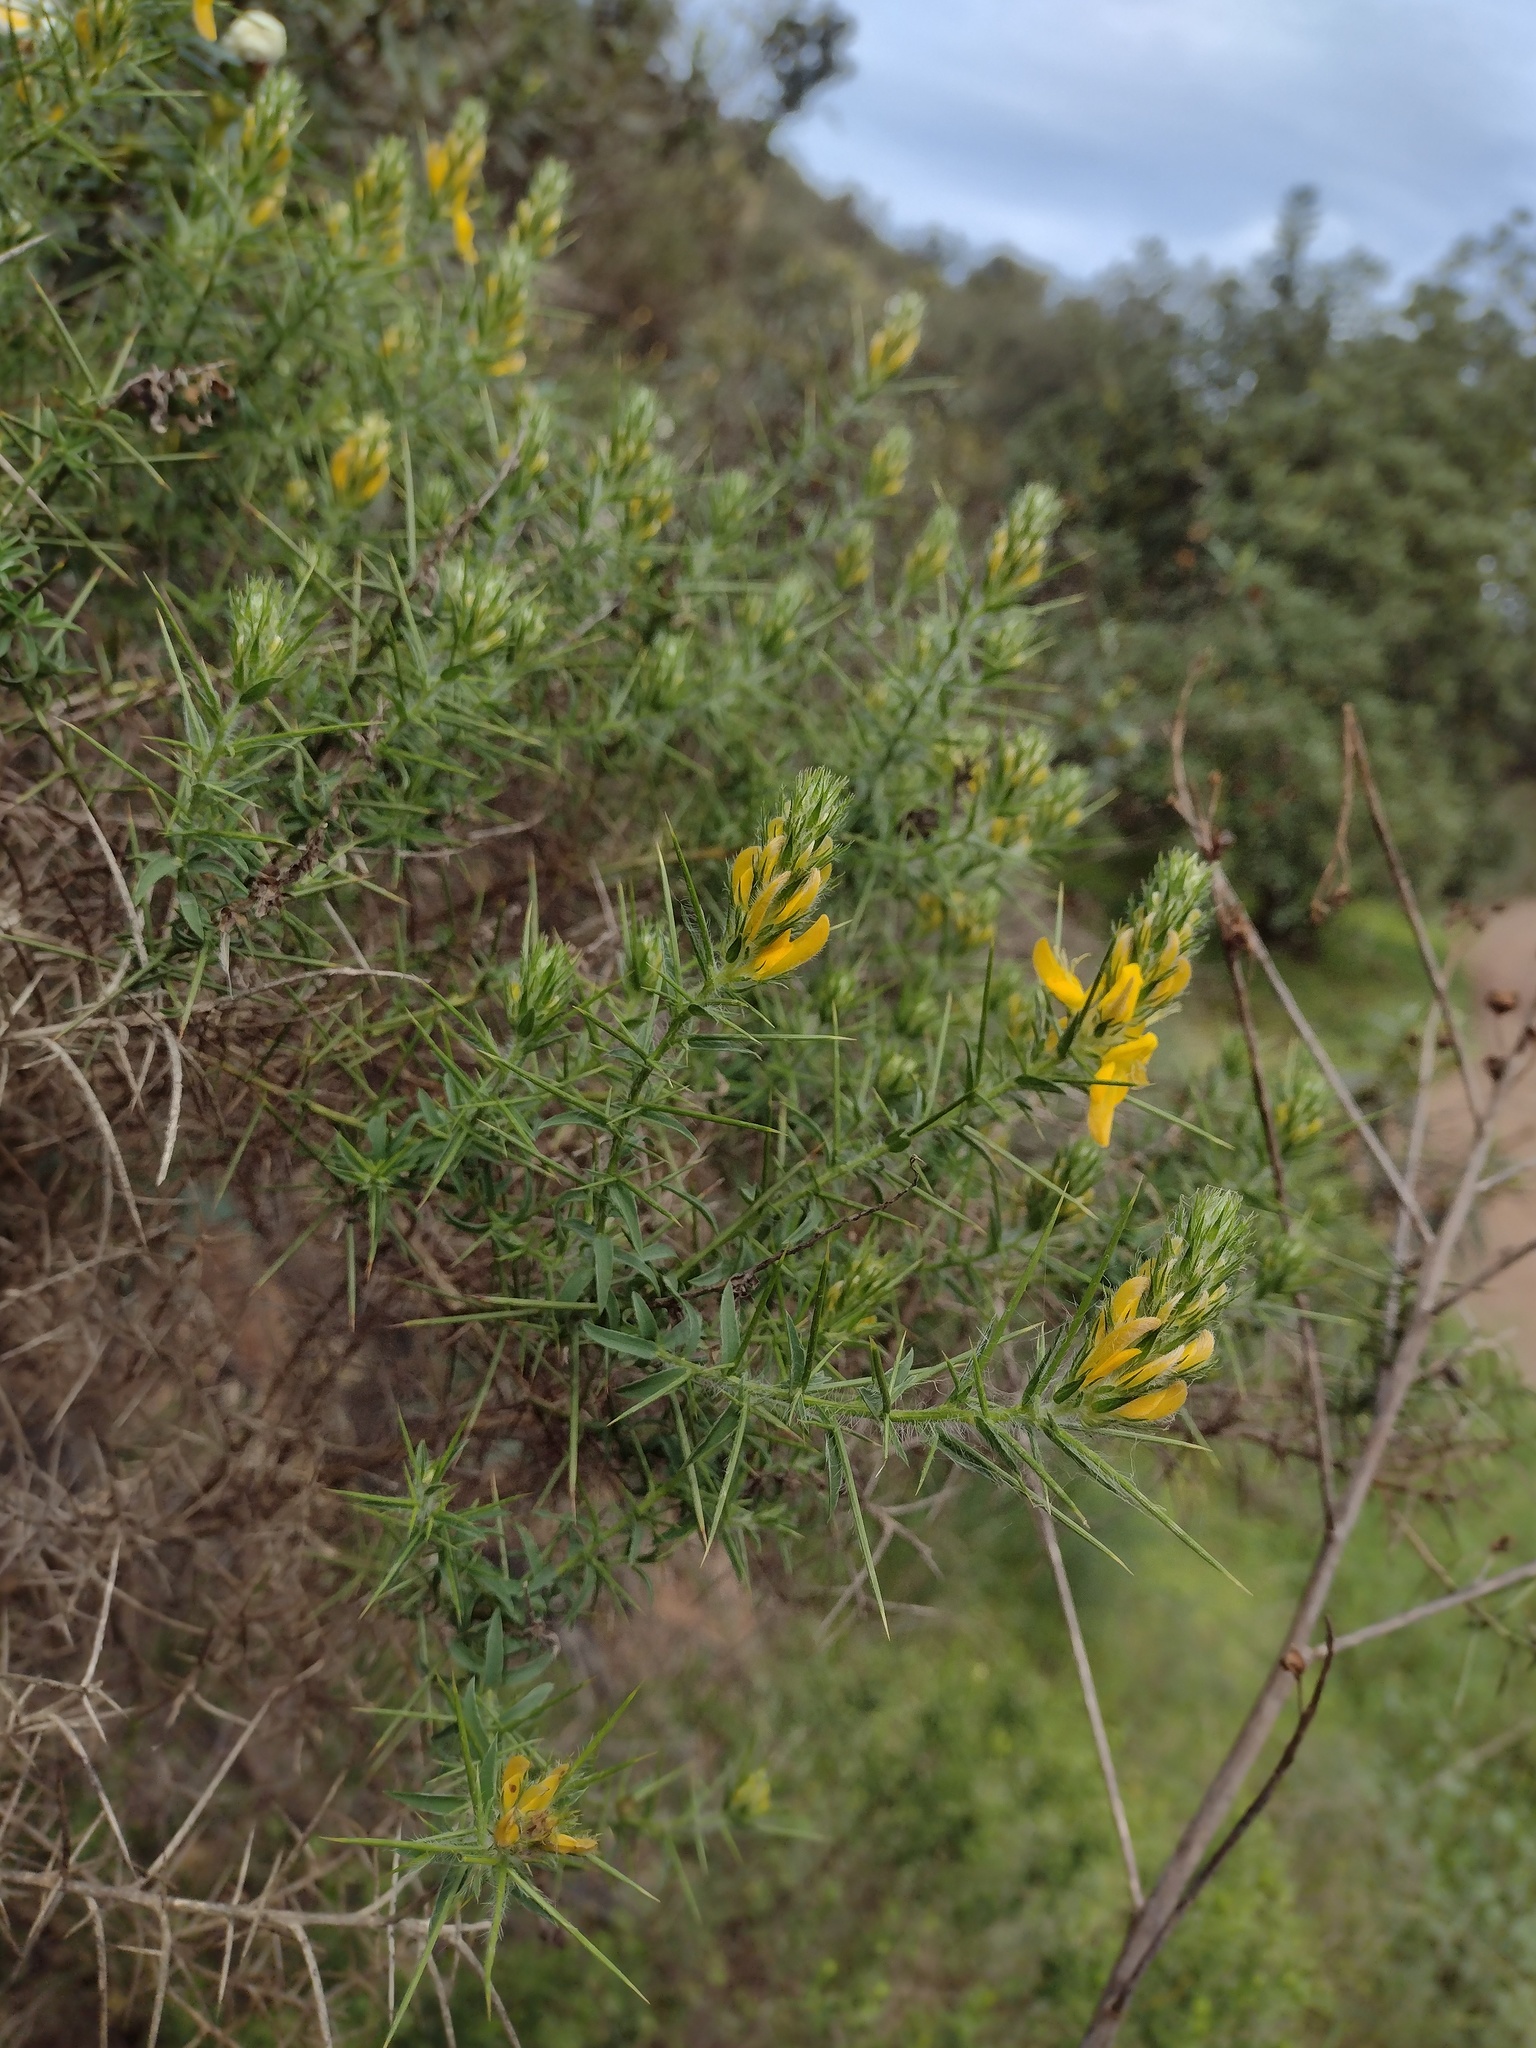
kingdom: Plantae
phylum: Tracheophyta
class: Magnoliopsida
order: Fabales
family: Fabaceae
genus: Genista
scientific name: Genista hirsuta
